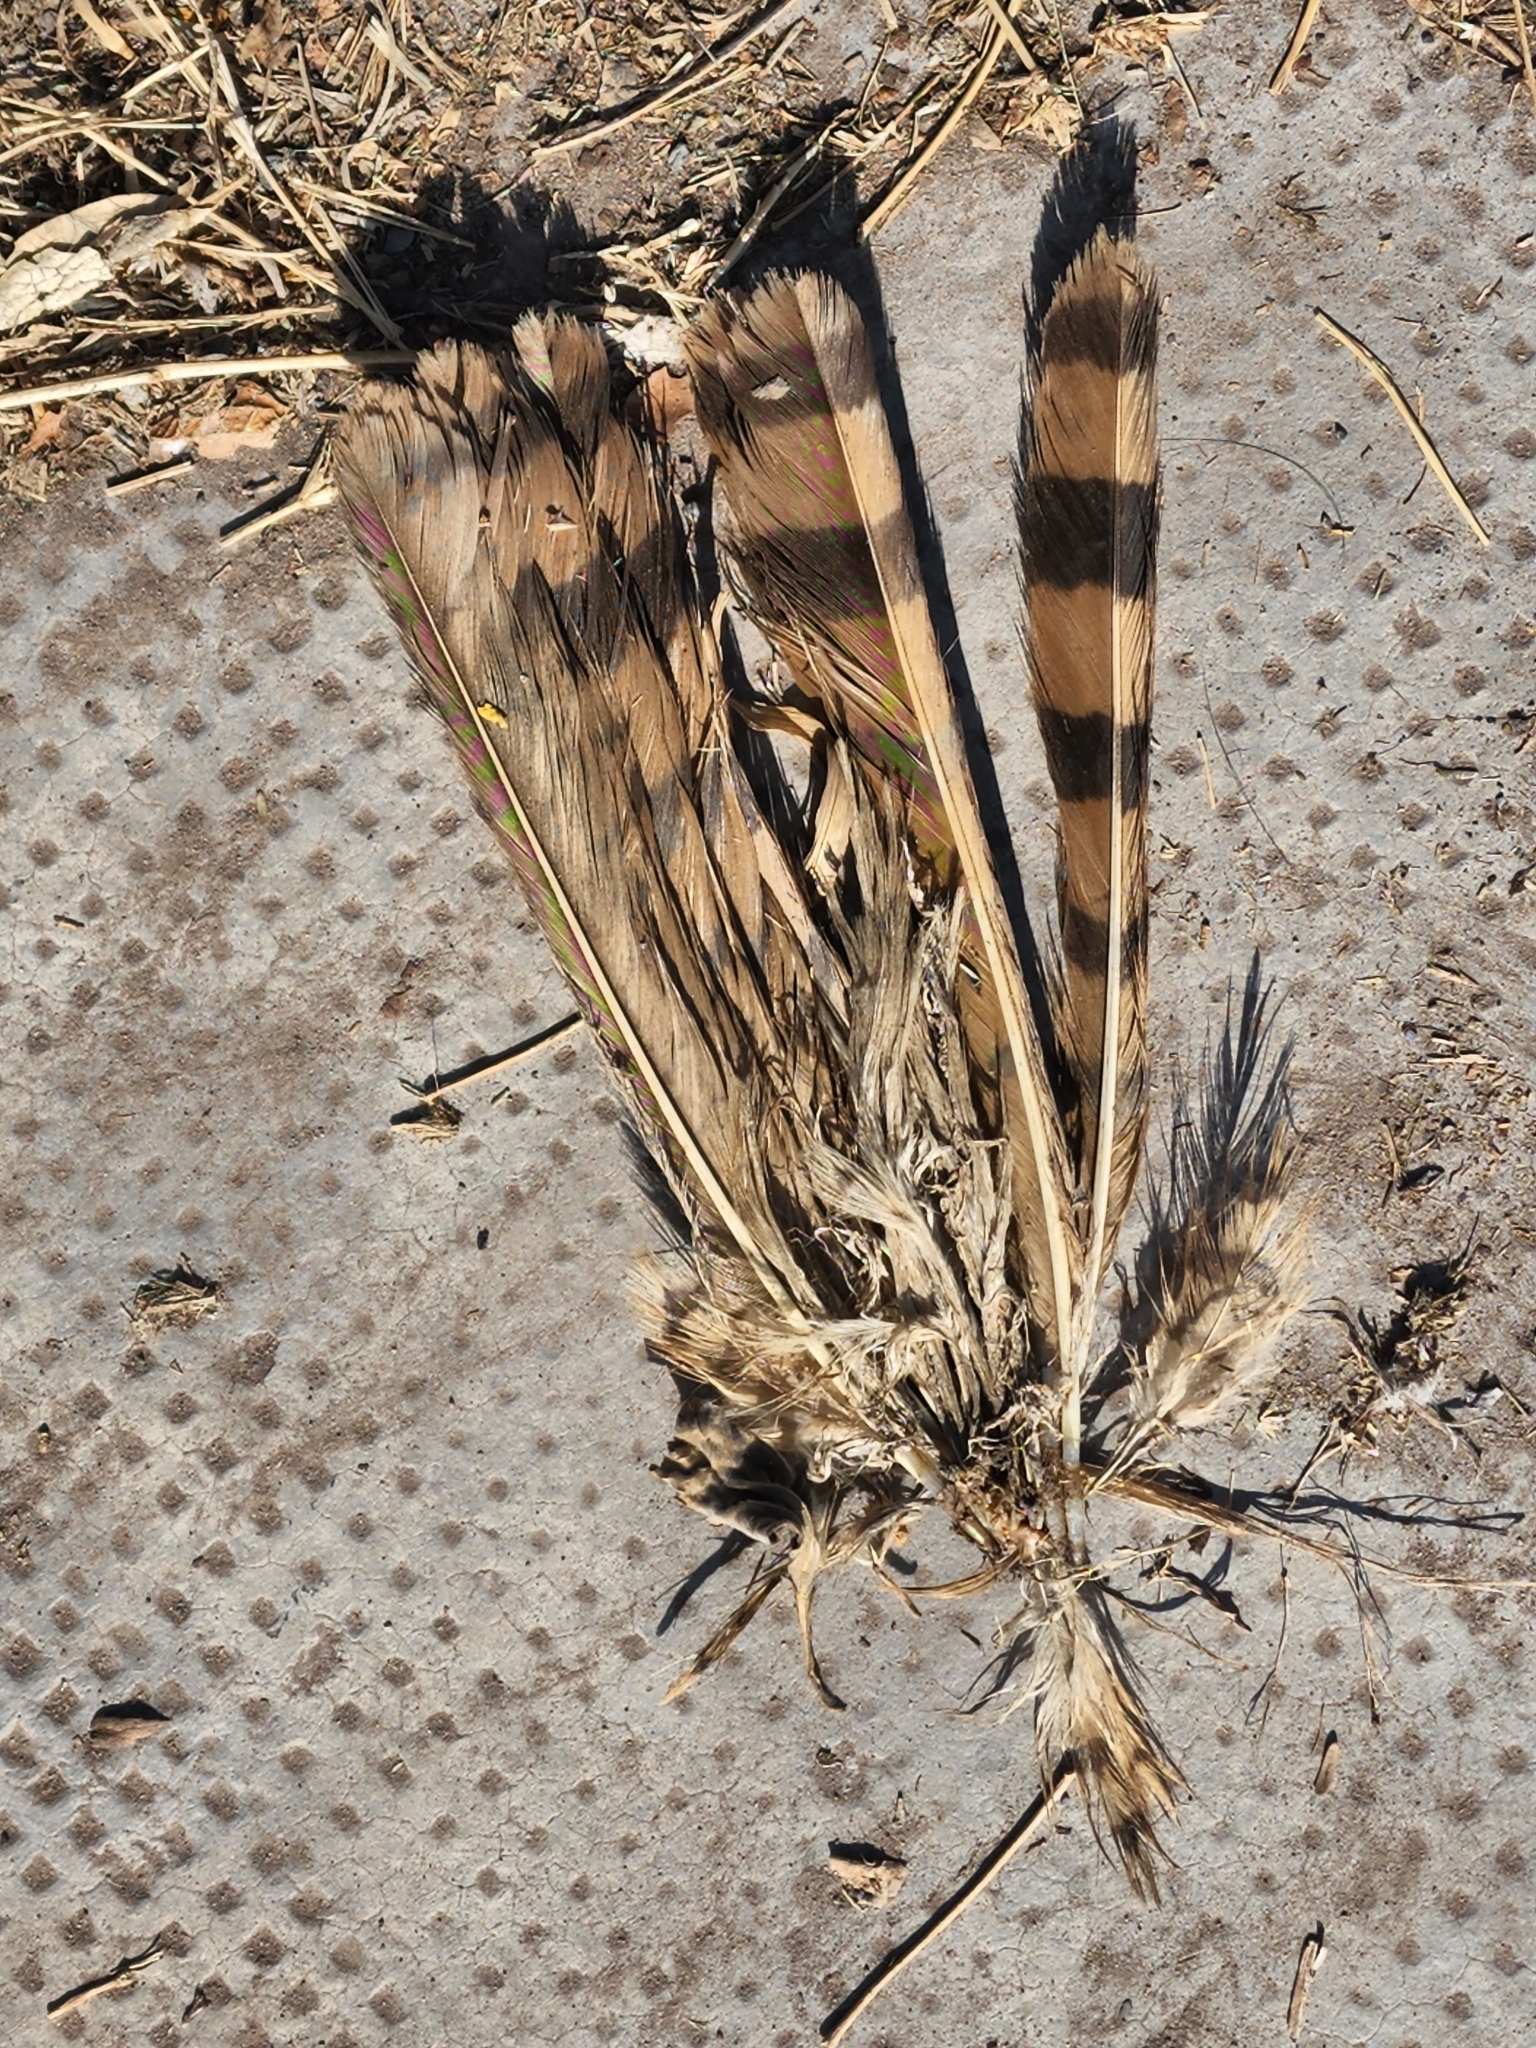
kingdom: Animalia
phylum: Chordata
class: Aves
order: Accipitriformes
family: Accipitridae
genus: Rupornis
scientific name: Rupornis magnirostris
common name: Roadside hawk
